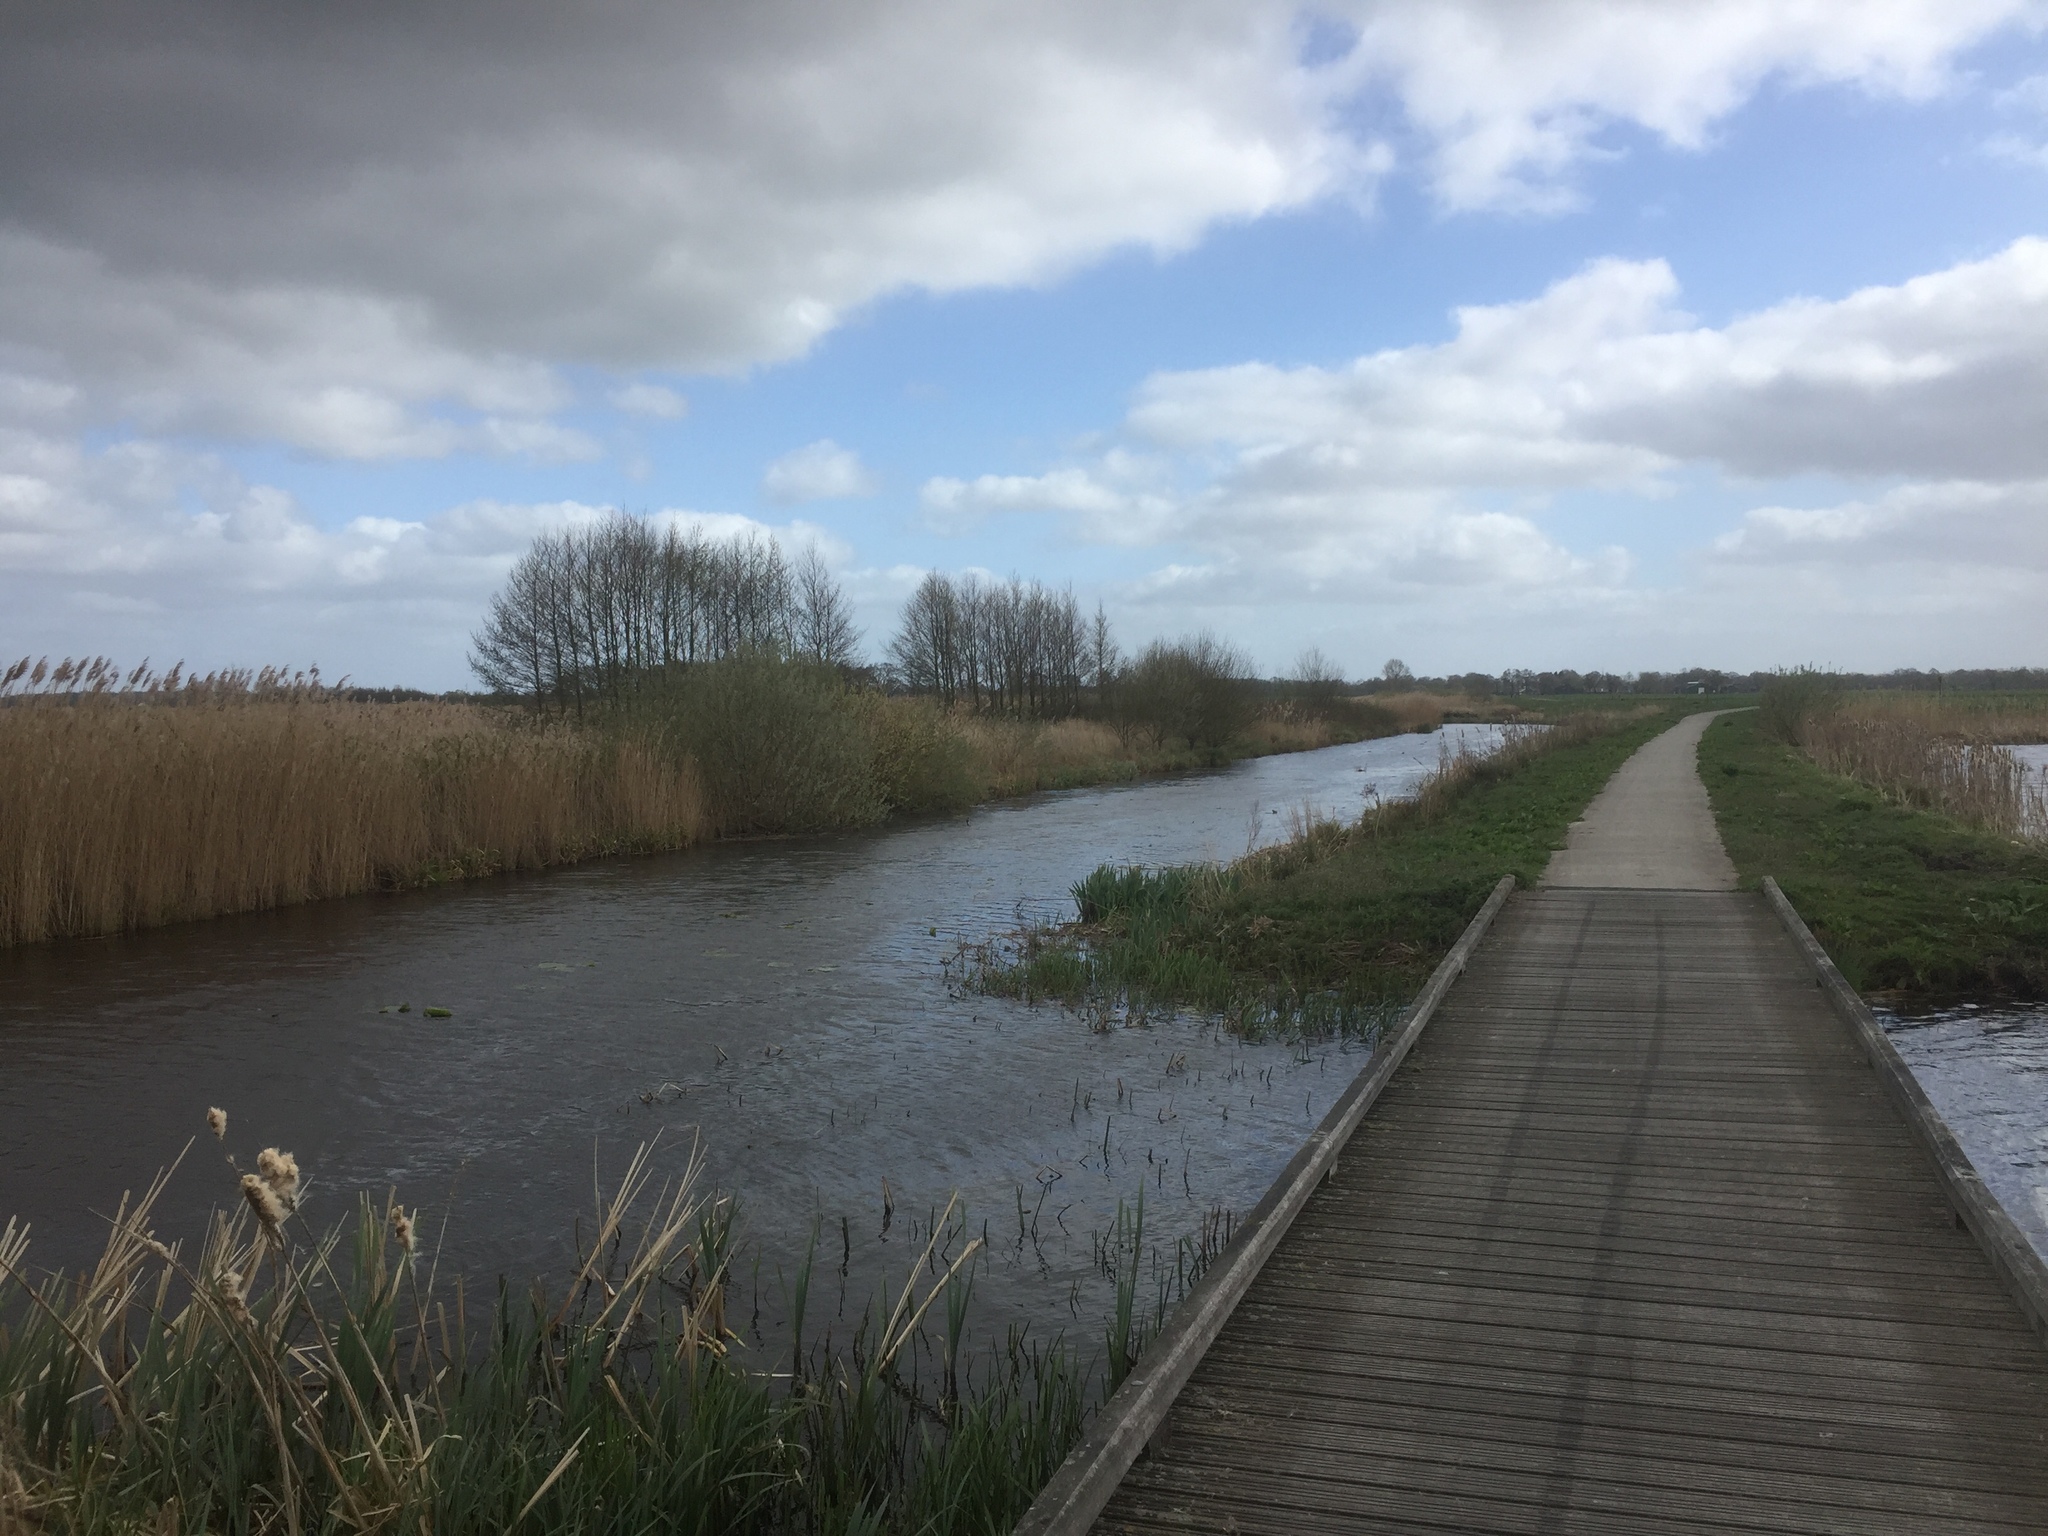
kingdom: Plantae
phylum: Tracheophyta
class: Liliopsida
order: Poales
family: Poaceae
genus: Phragmites
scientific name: Phragmites australis
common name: Common reed
